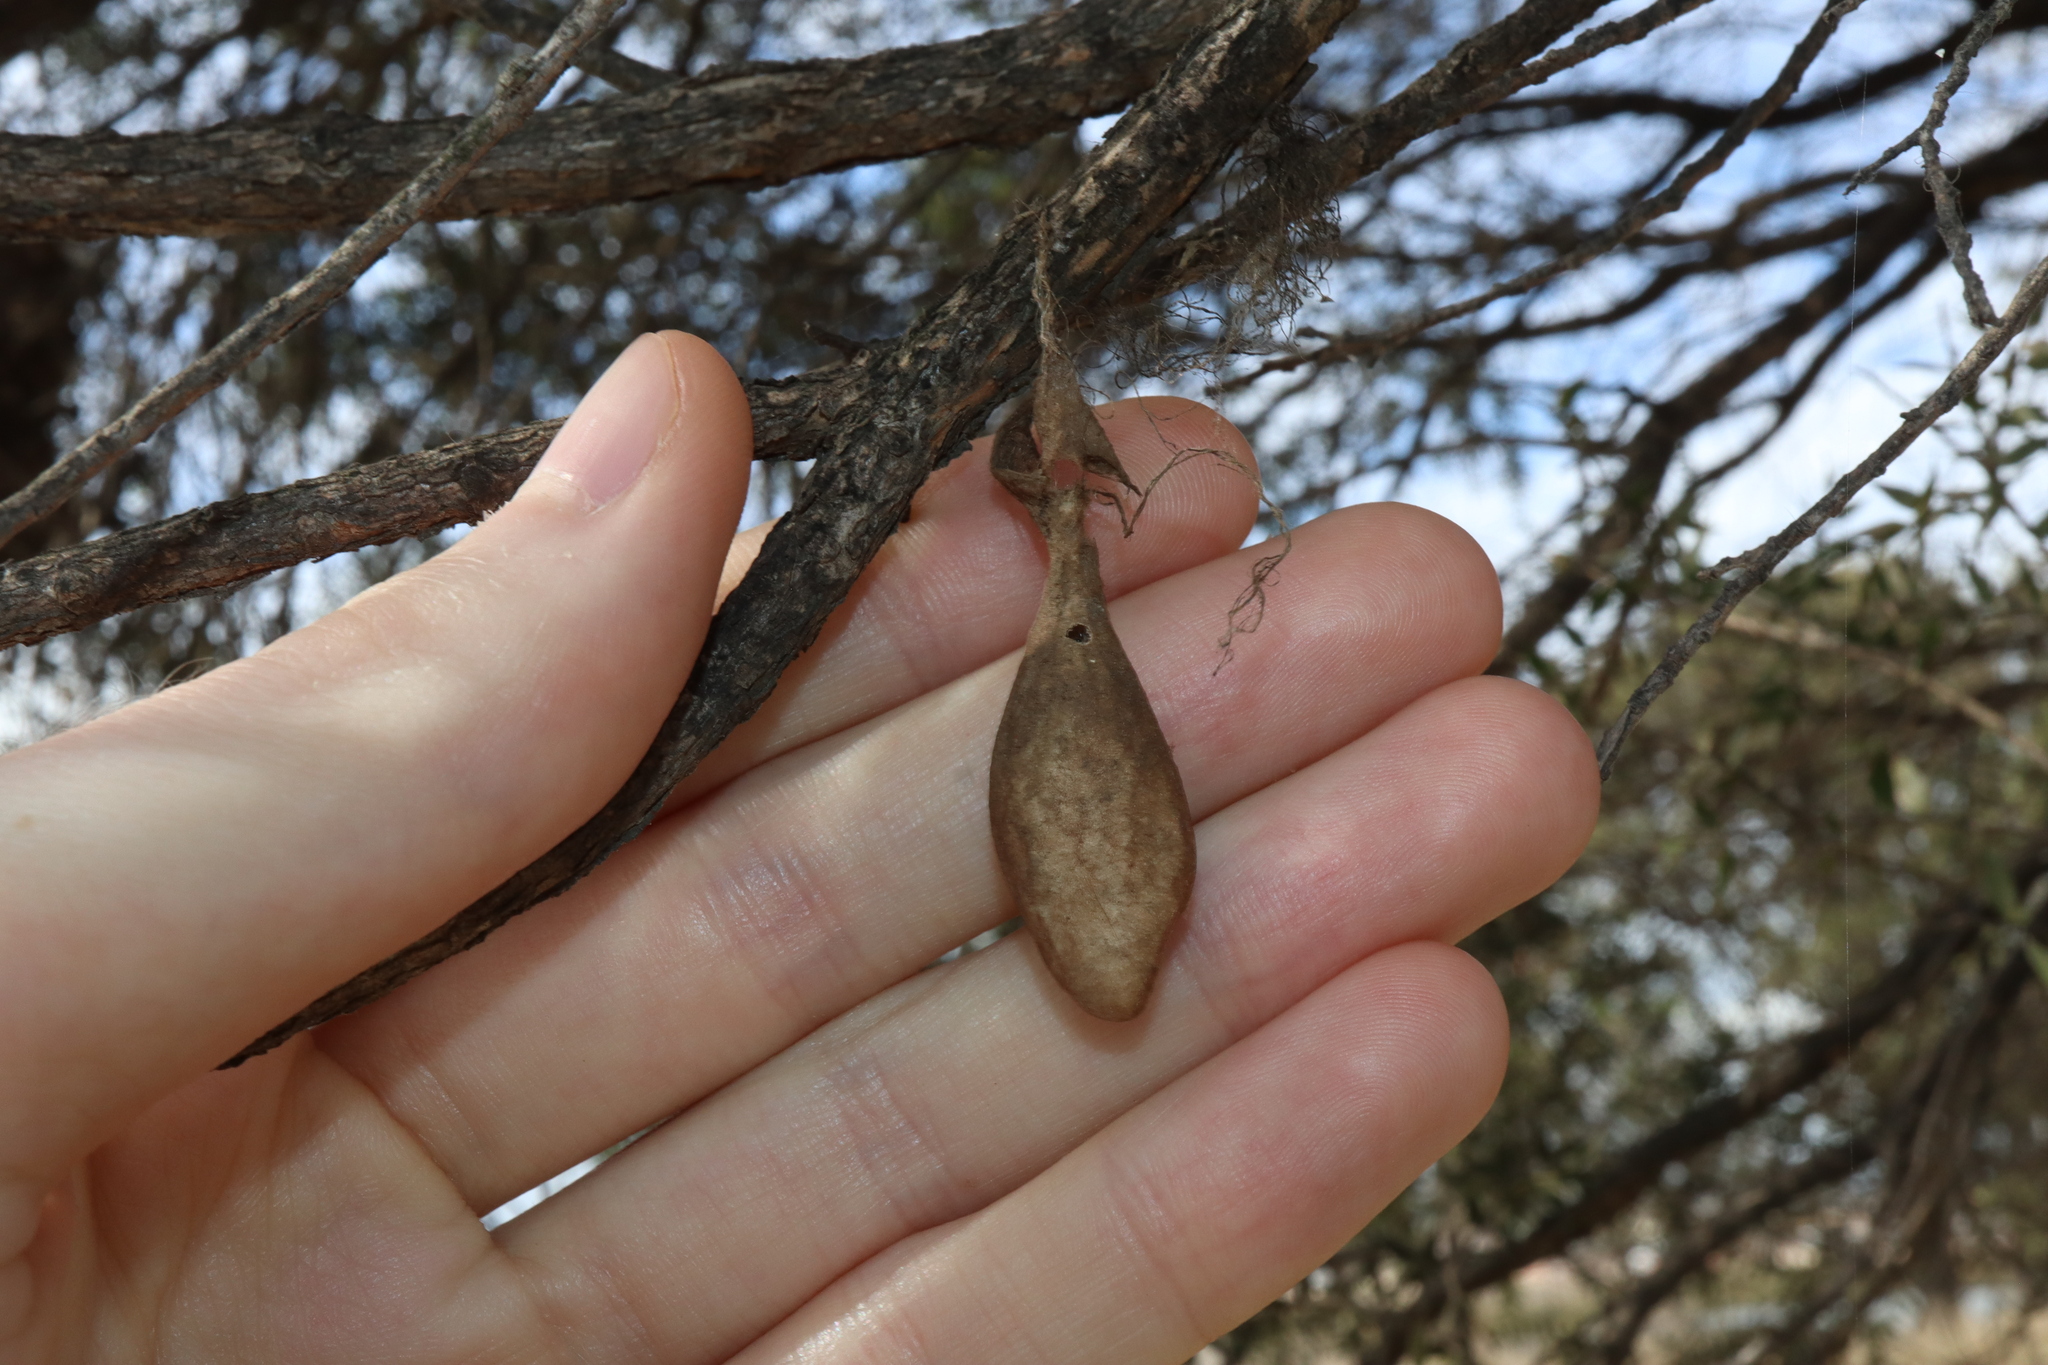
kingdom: Animalia
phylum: Arthropoda
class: Arachnida
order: Araneae
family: Araneidae
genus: Ordgarius
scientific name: Ordgarius magnificus
